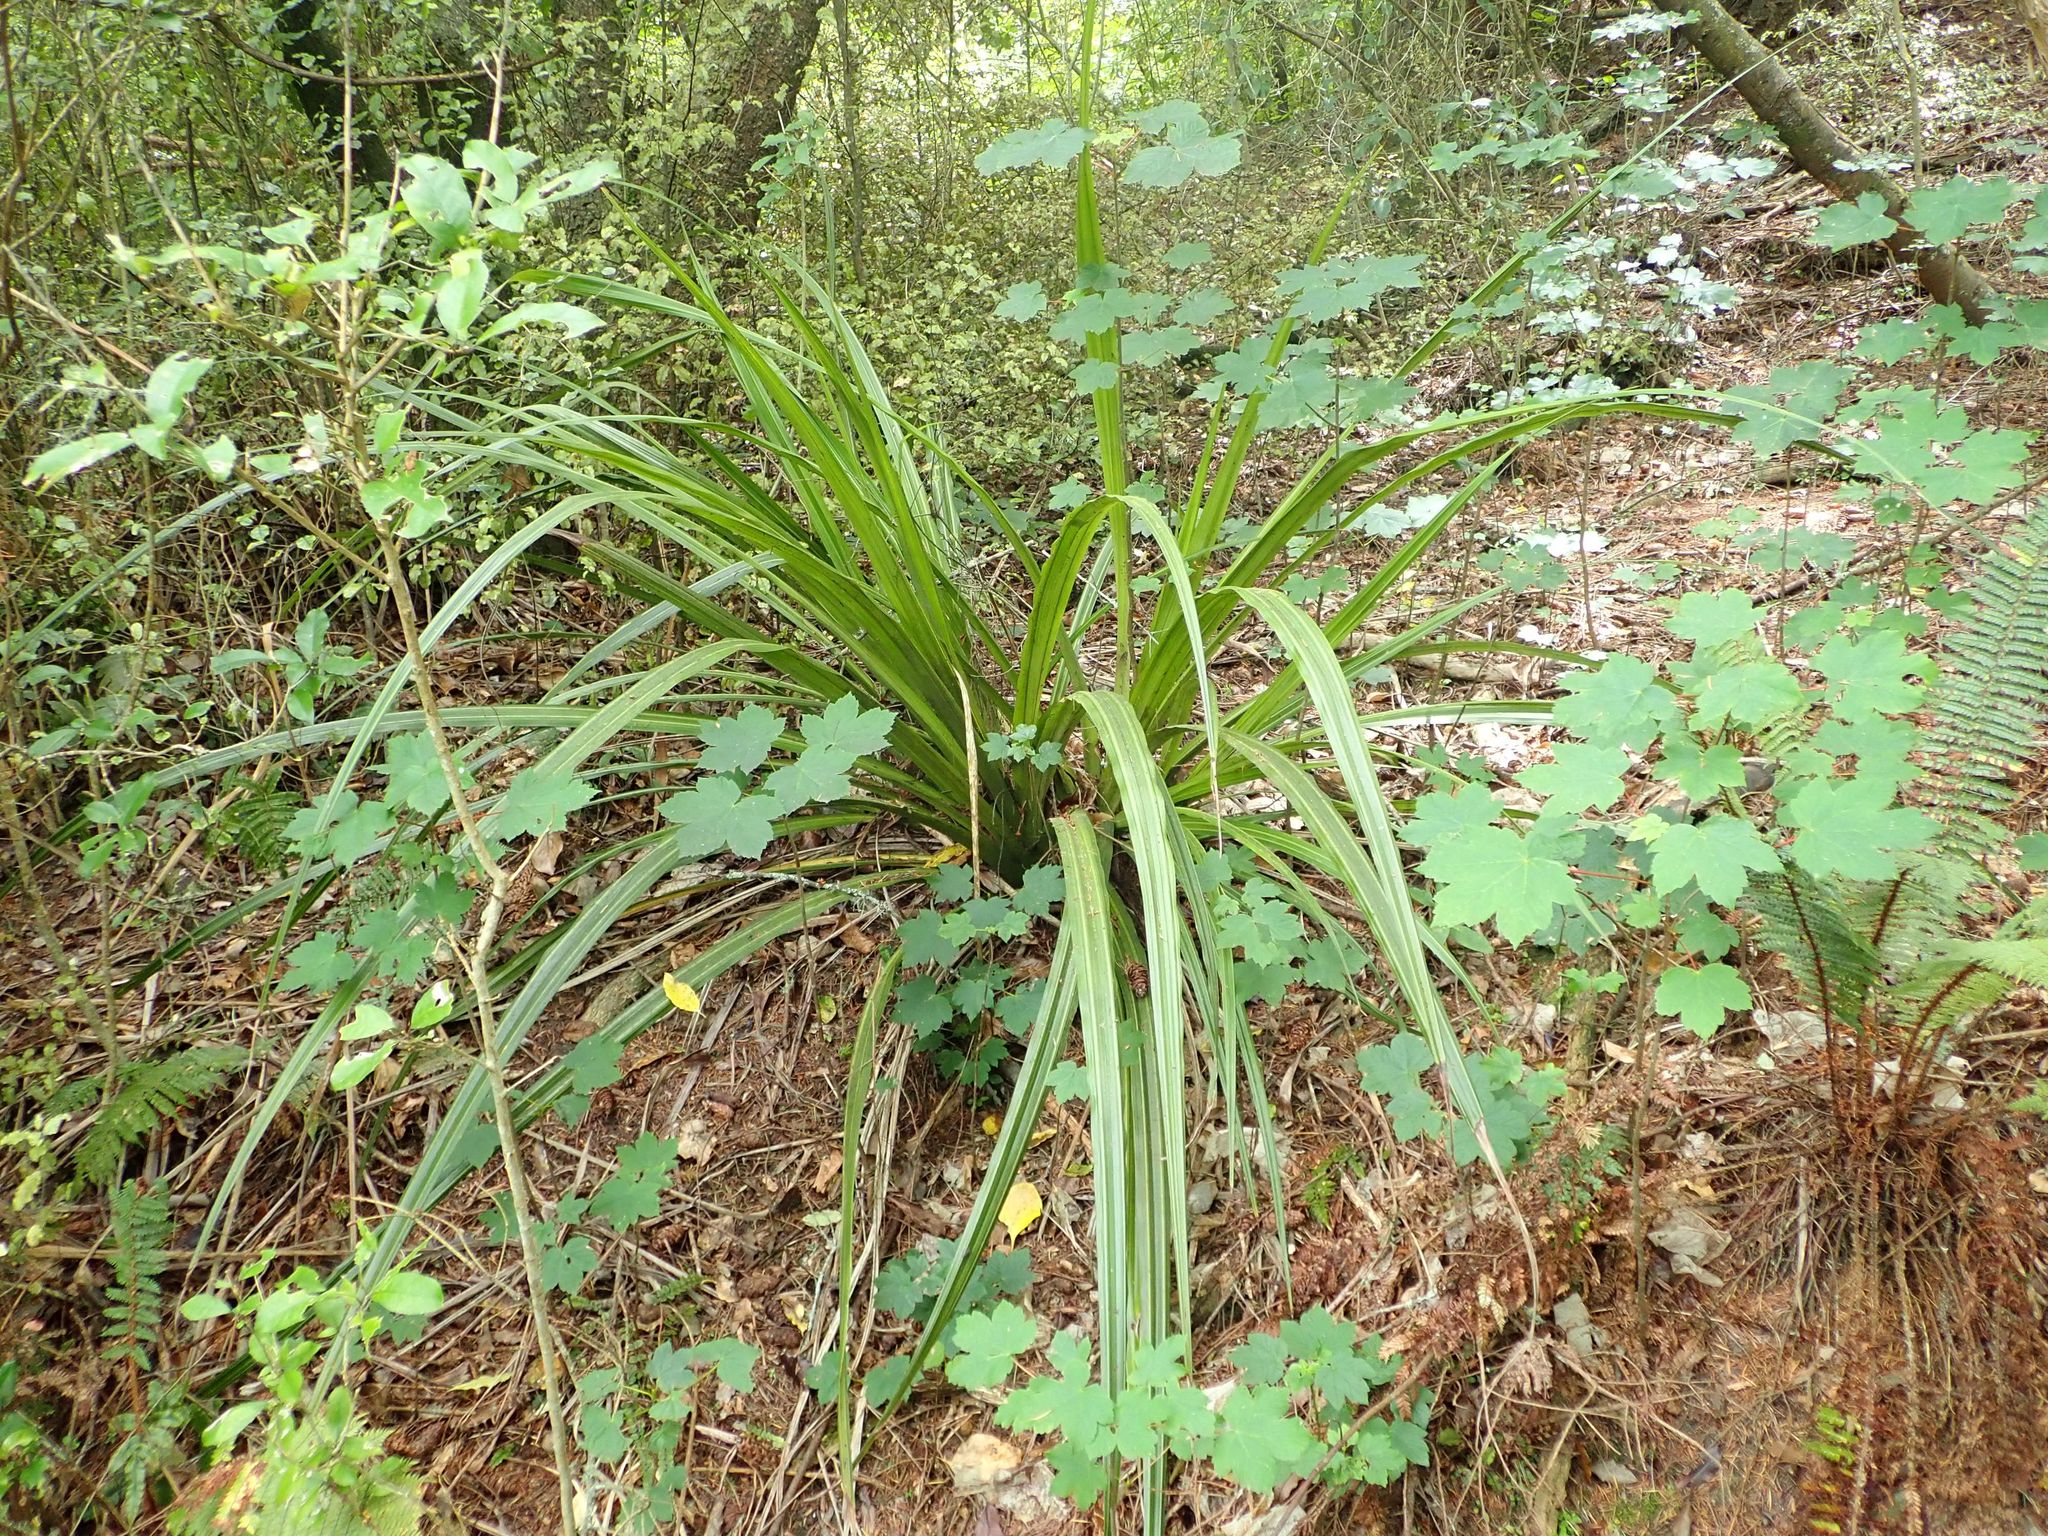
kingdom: Plantae
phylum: Tracheophyta
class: Liliopsida
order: Asparagales
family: Asteliaceae
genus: Astelia
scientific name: Astelia fragrans
